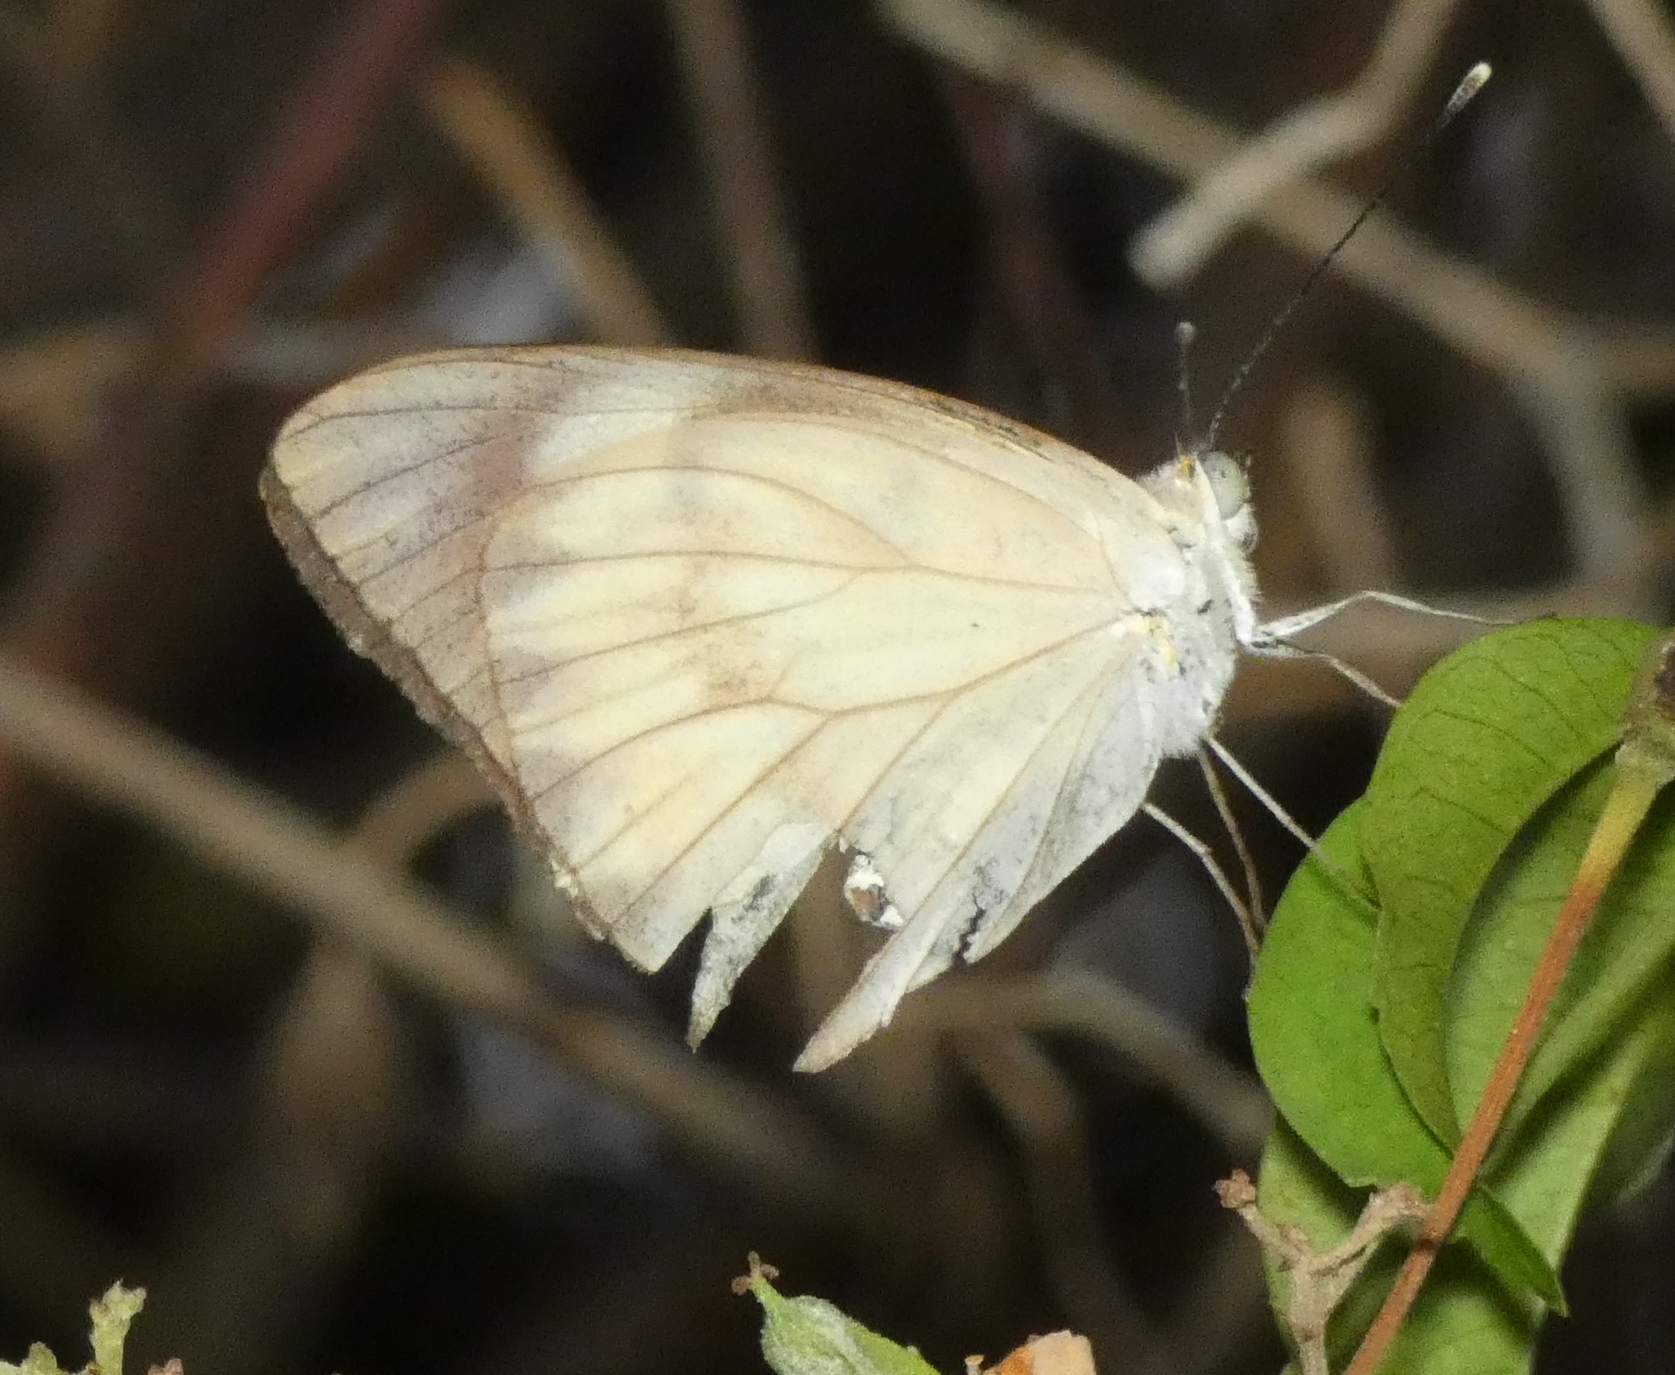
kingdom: Animalia
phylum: Arthropoda
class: Insecta
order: Lepidoptera
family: Pieridae
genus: Ascia
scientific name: Ascia monuste
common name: Great southern white
